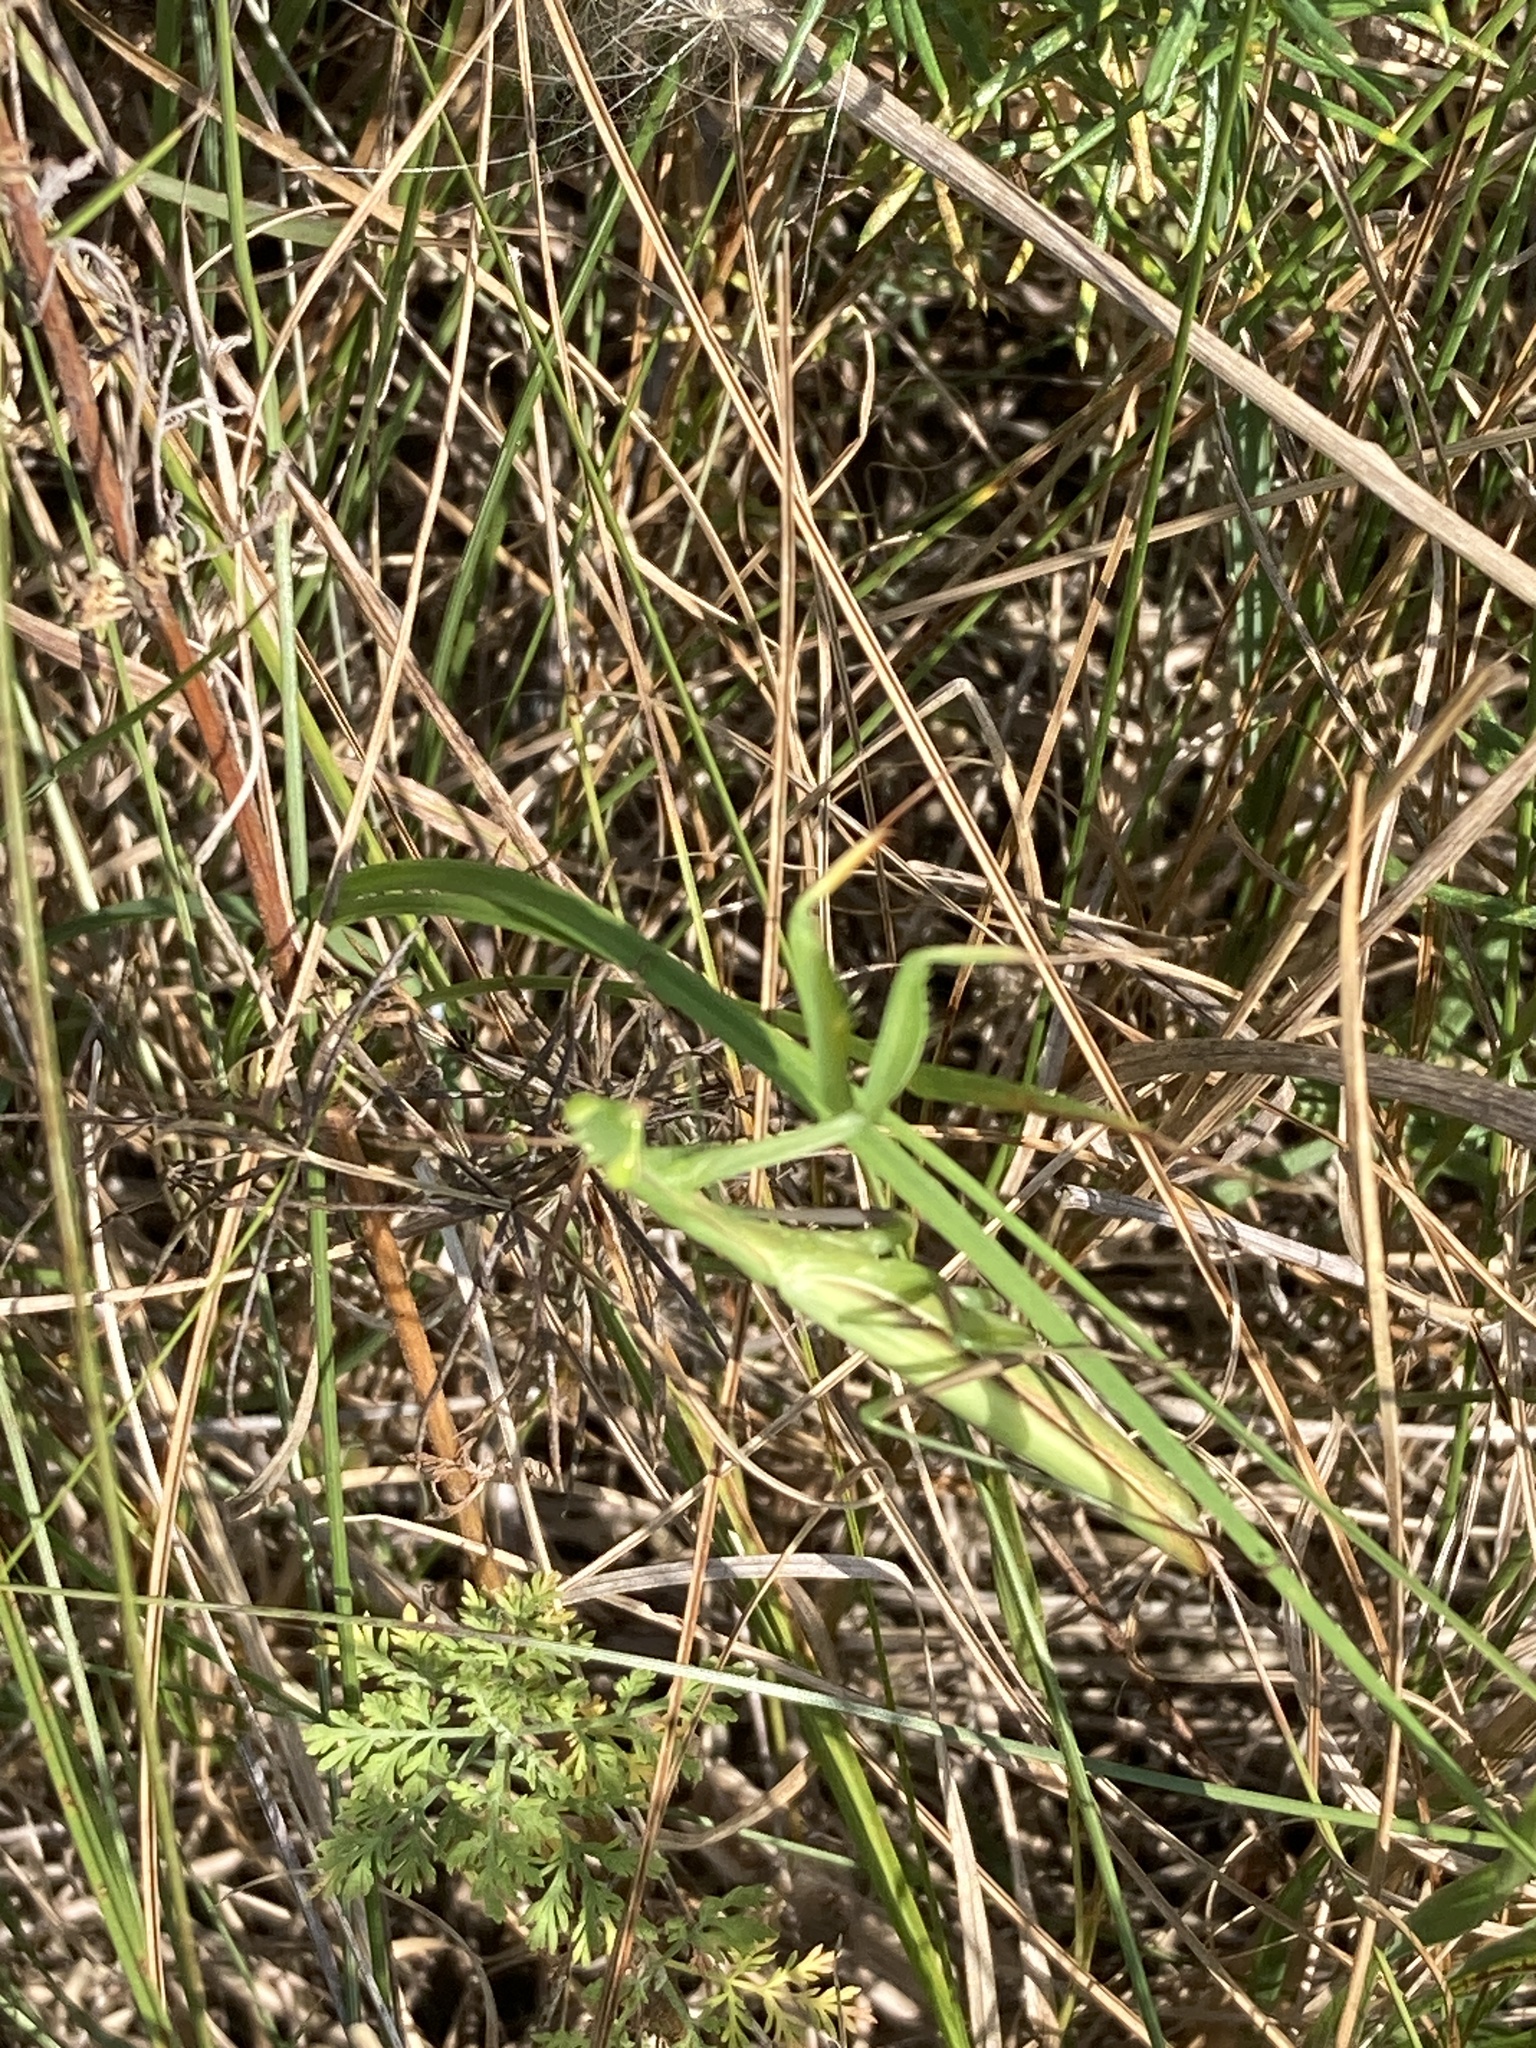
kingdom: Animalia
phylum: Arthropoda
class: Insecta
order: Mantodea
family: Mantidae
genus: Mantis
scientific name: Mantis religiosa
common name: Praying mantis
